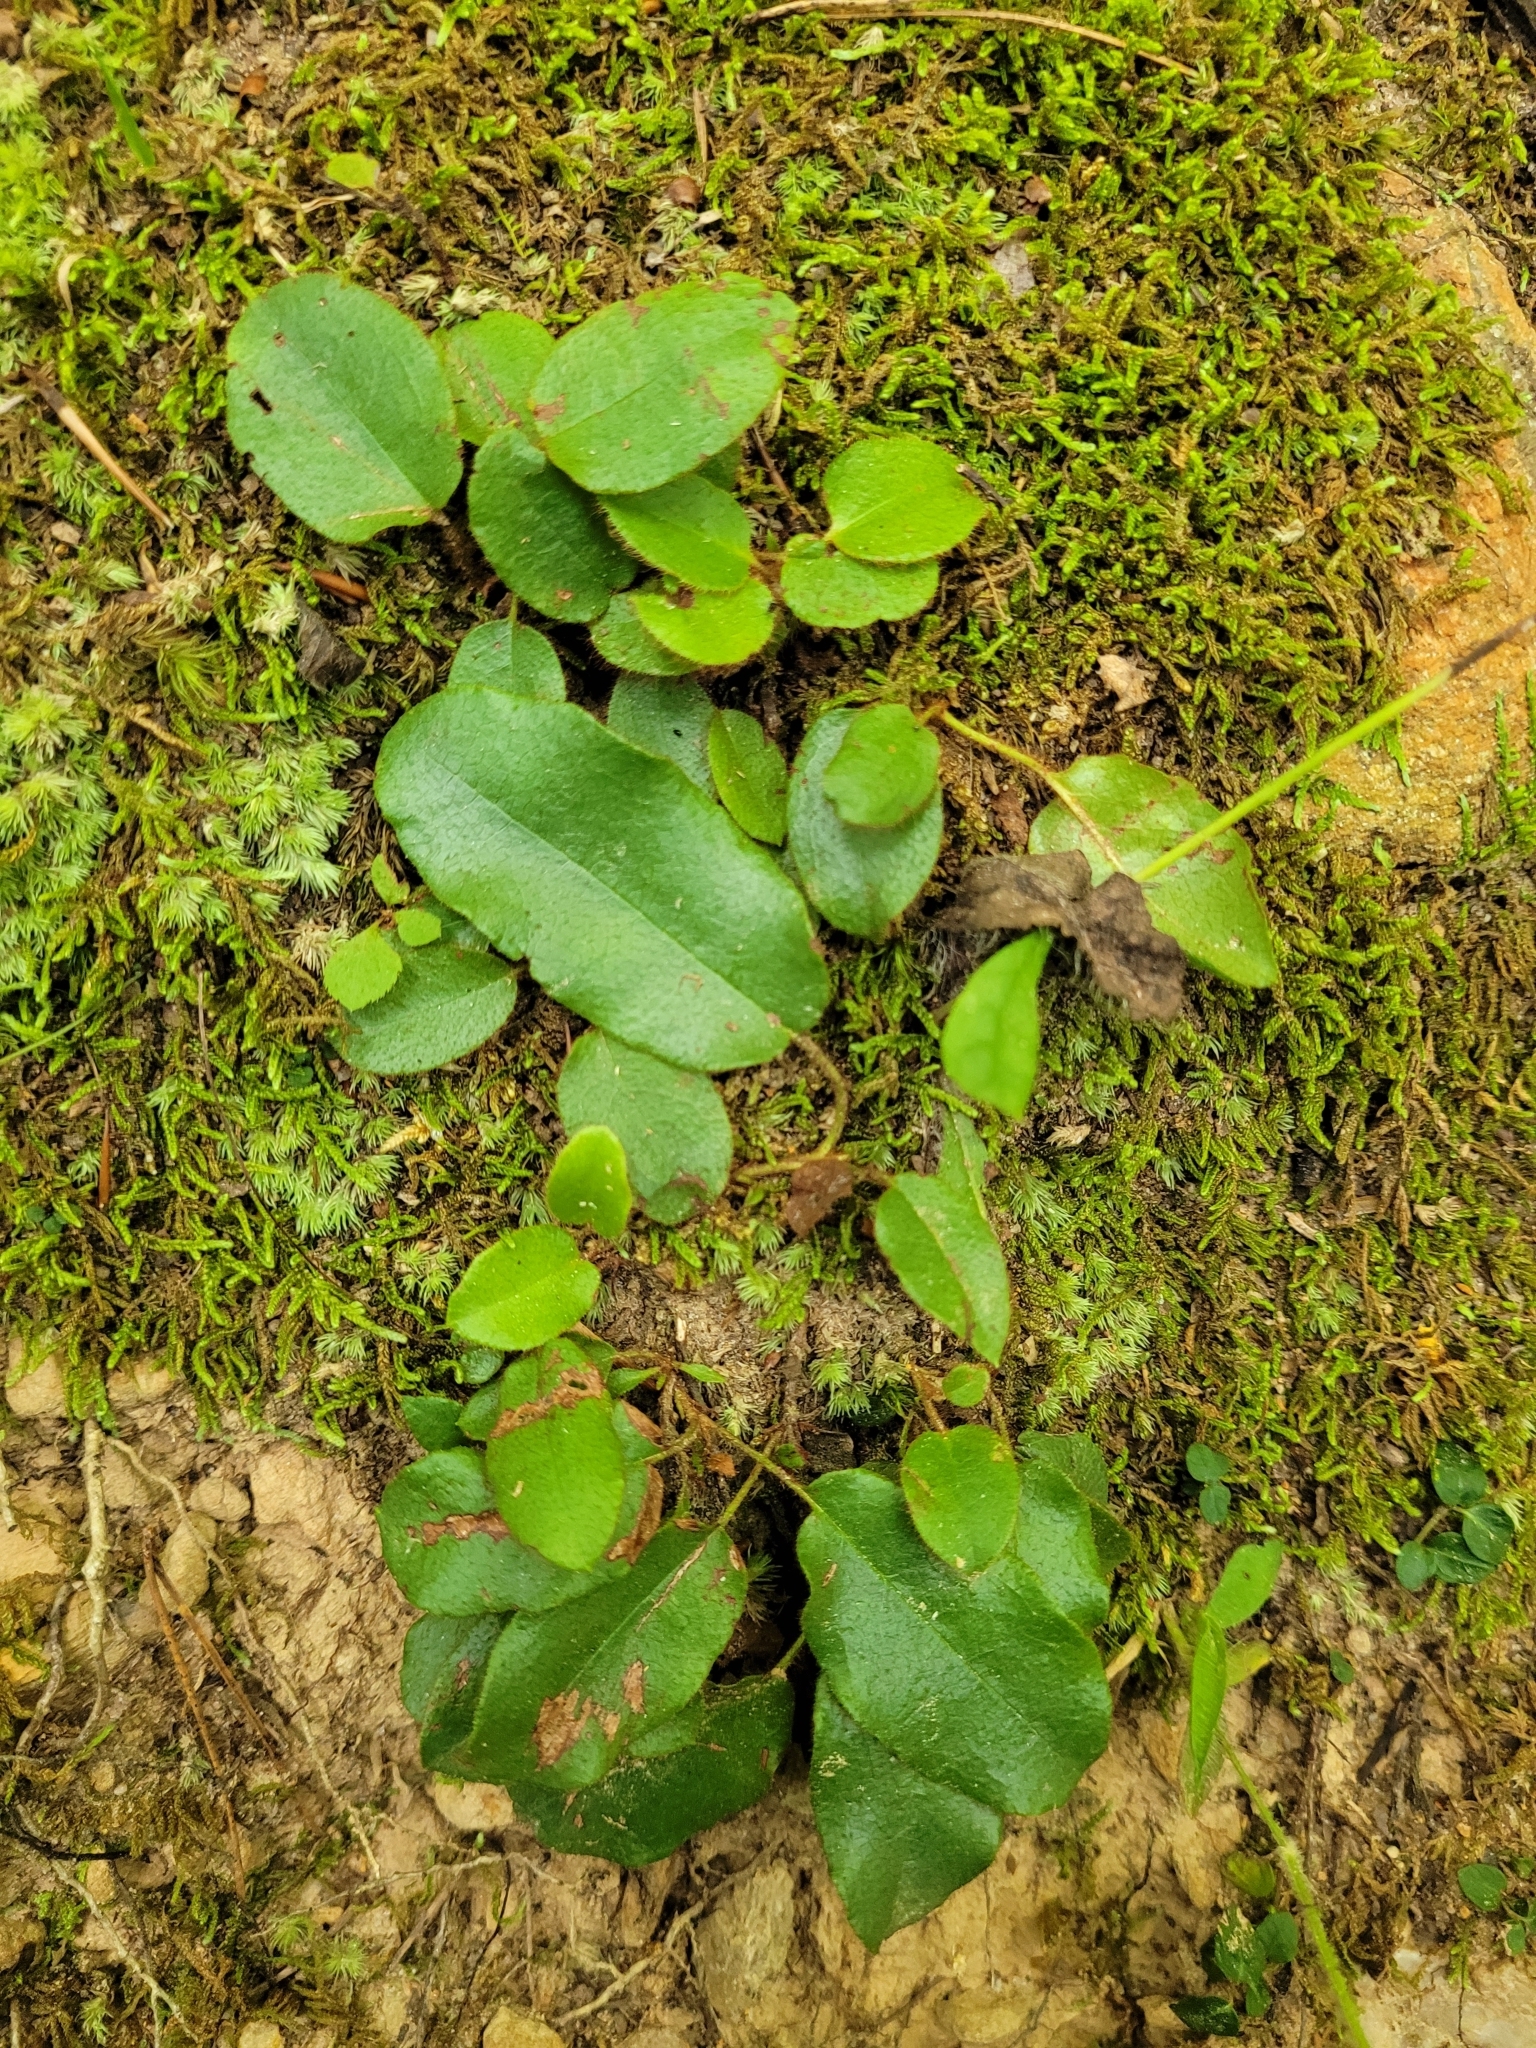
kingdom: Plantae
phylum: Tracheophyta
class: Magnoliopsida
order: Ericales
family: Ericaceae
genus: Epigaea
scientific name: Epigaea repens
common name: Gravelroot
